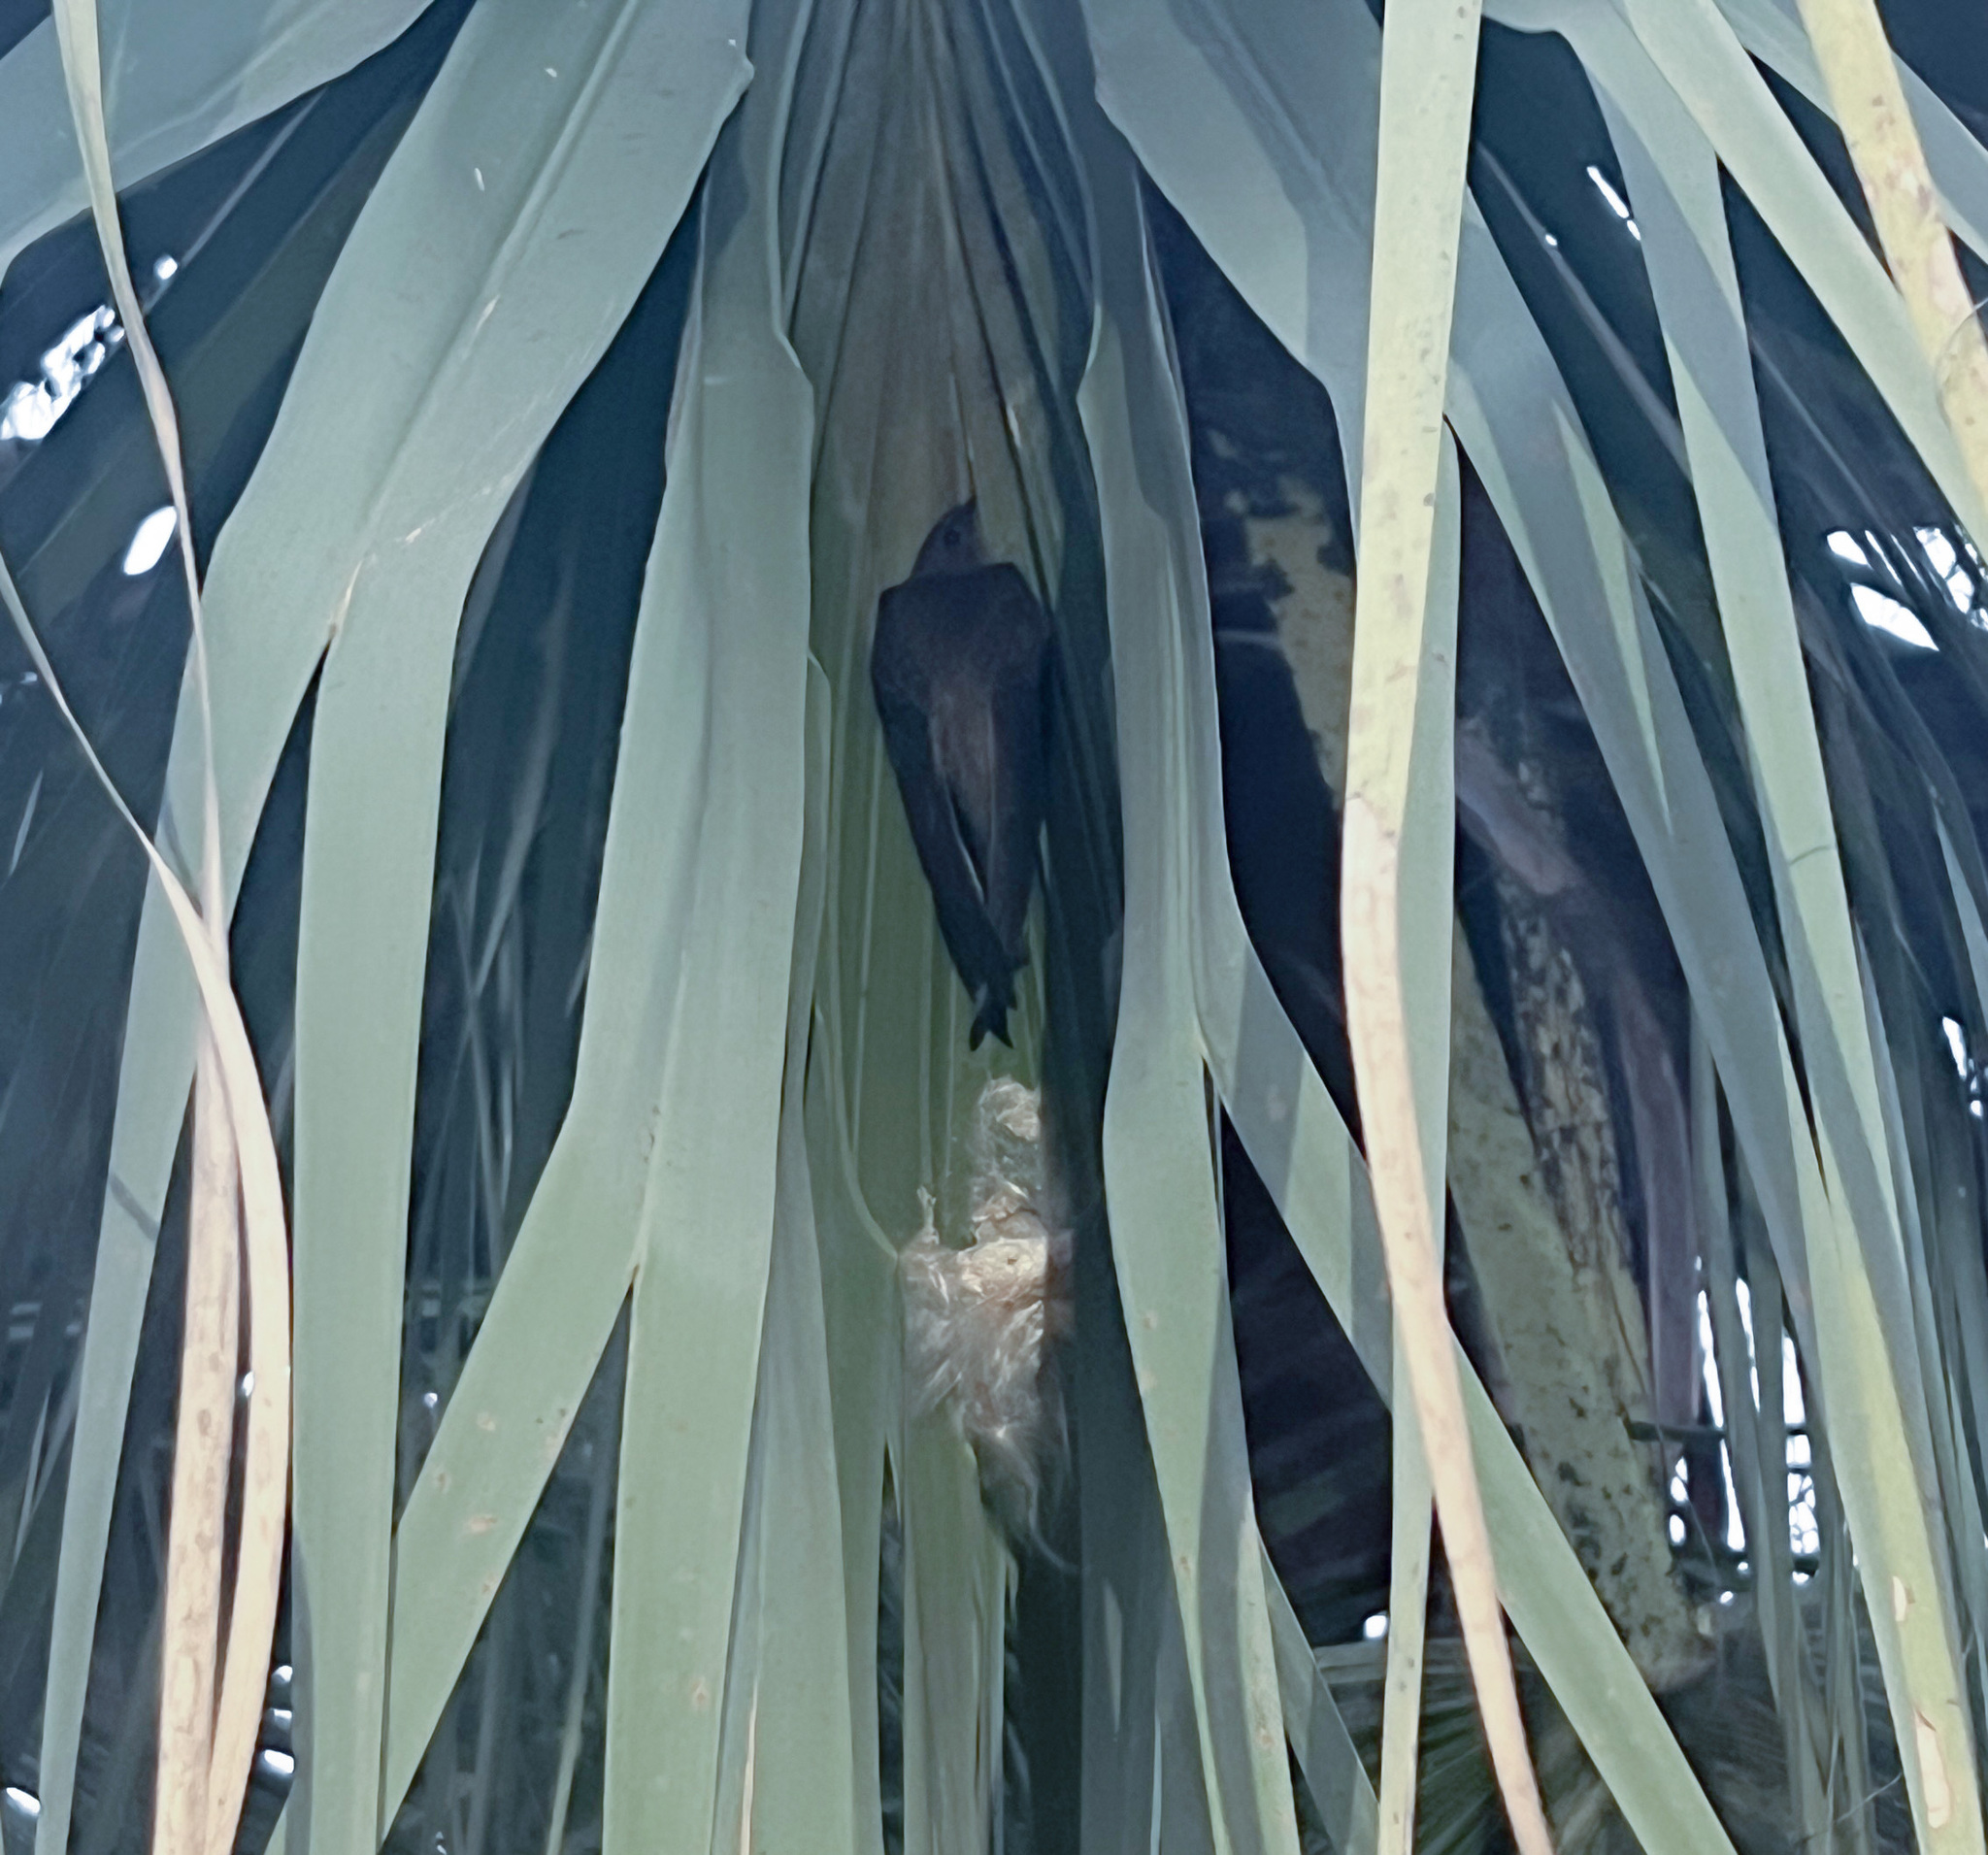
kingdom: Animalia
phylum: Chordata
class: Aves
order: Apodiformes
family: Apodidae
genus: Cypsiurus
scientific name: Cypsiurus balasiensis
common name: Asian palm swift
